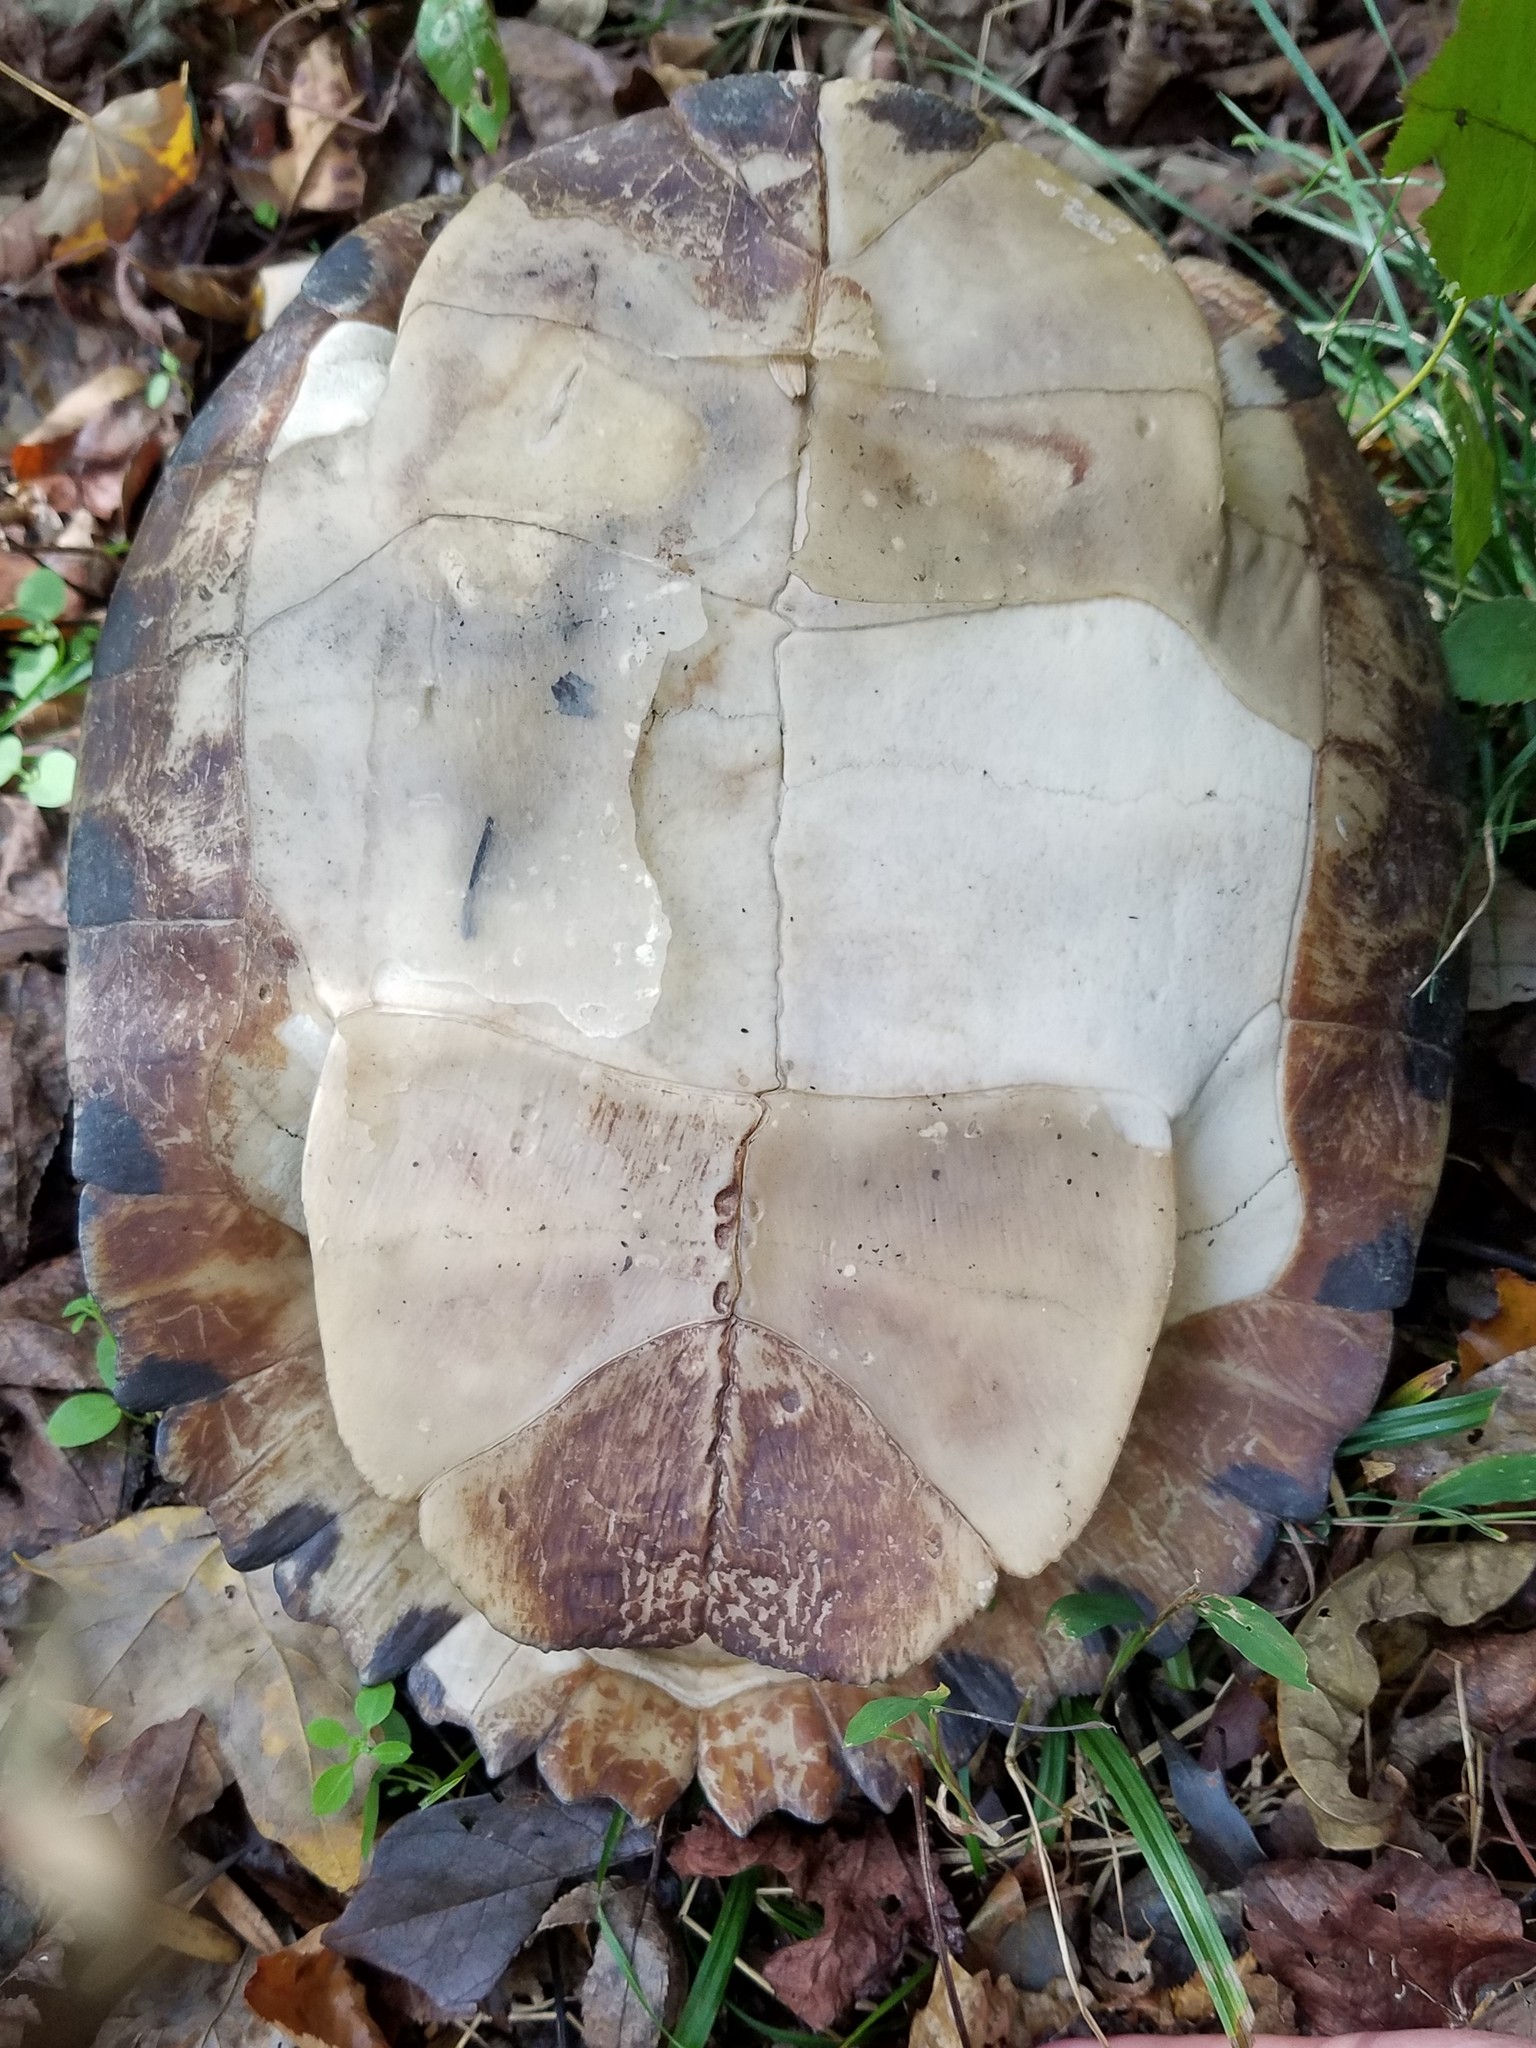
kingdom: Animalia
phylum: Chordata
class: Testudines
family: Emydidae
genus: Trachemys
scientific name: Trachemys scripta
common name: Slider
